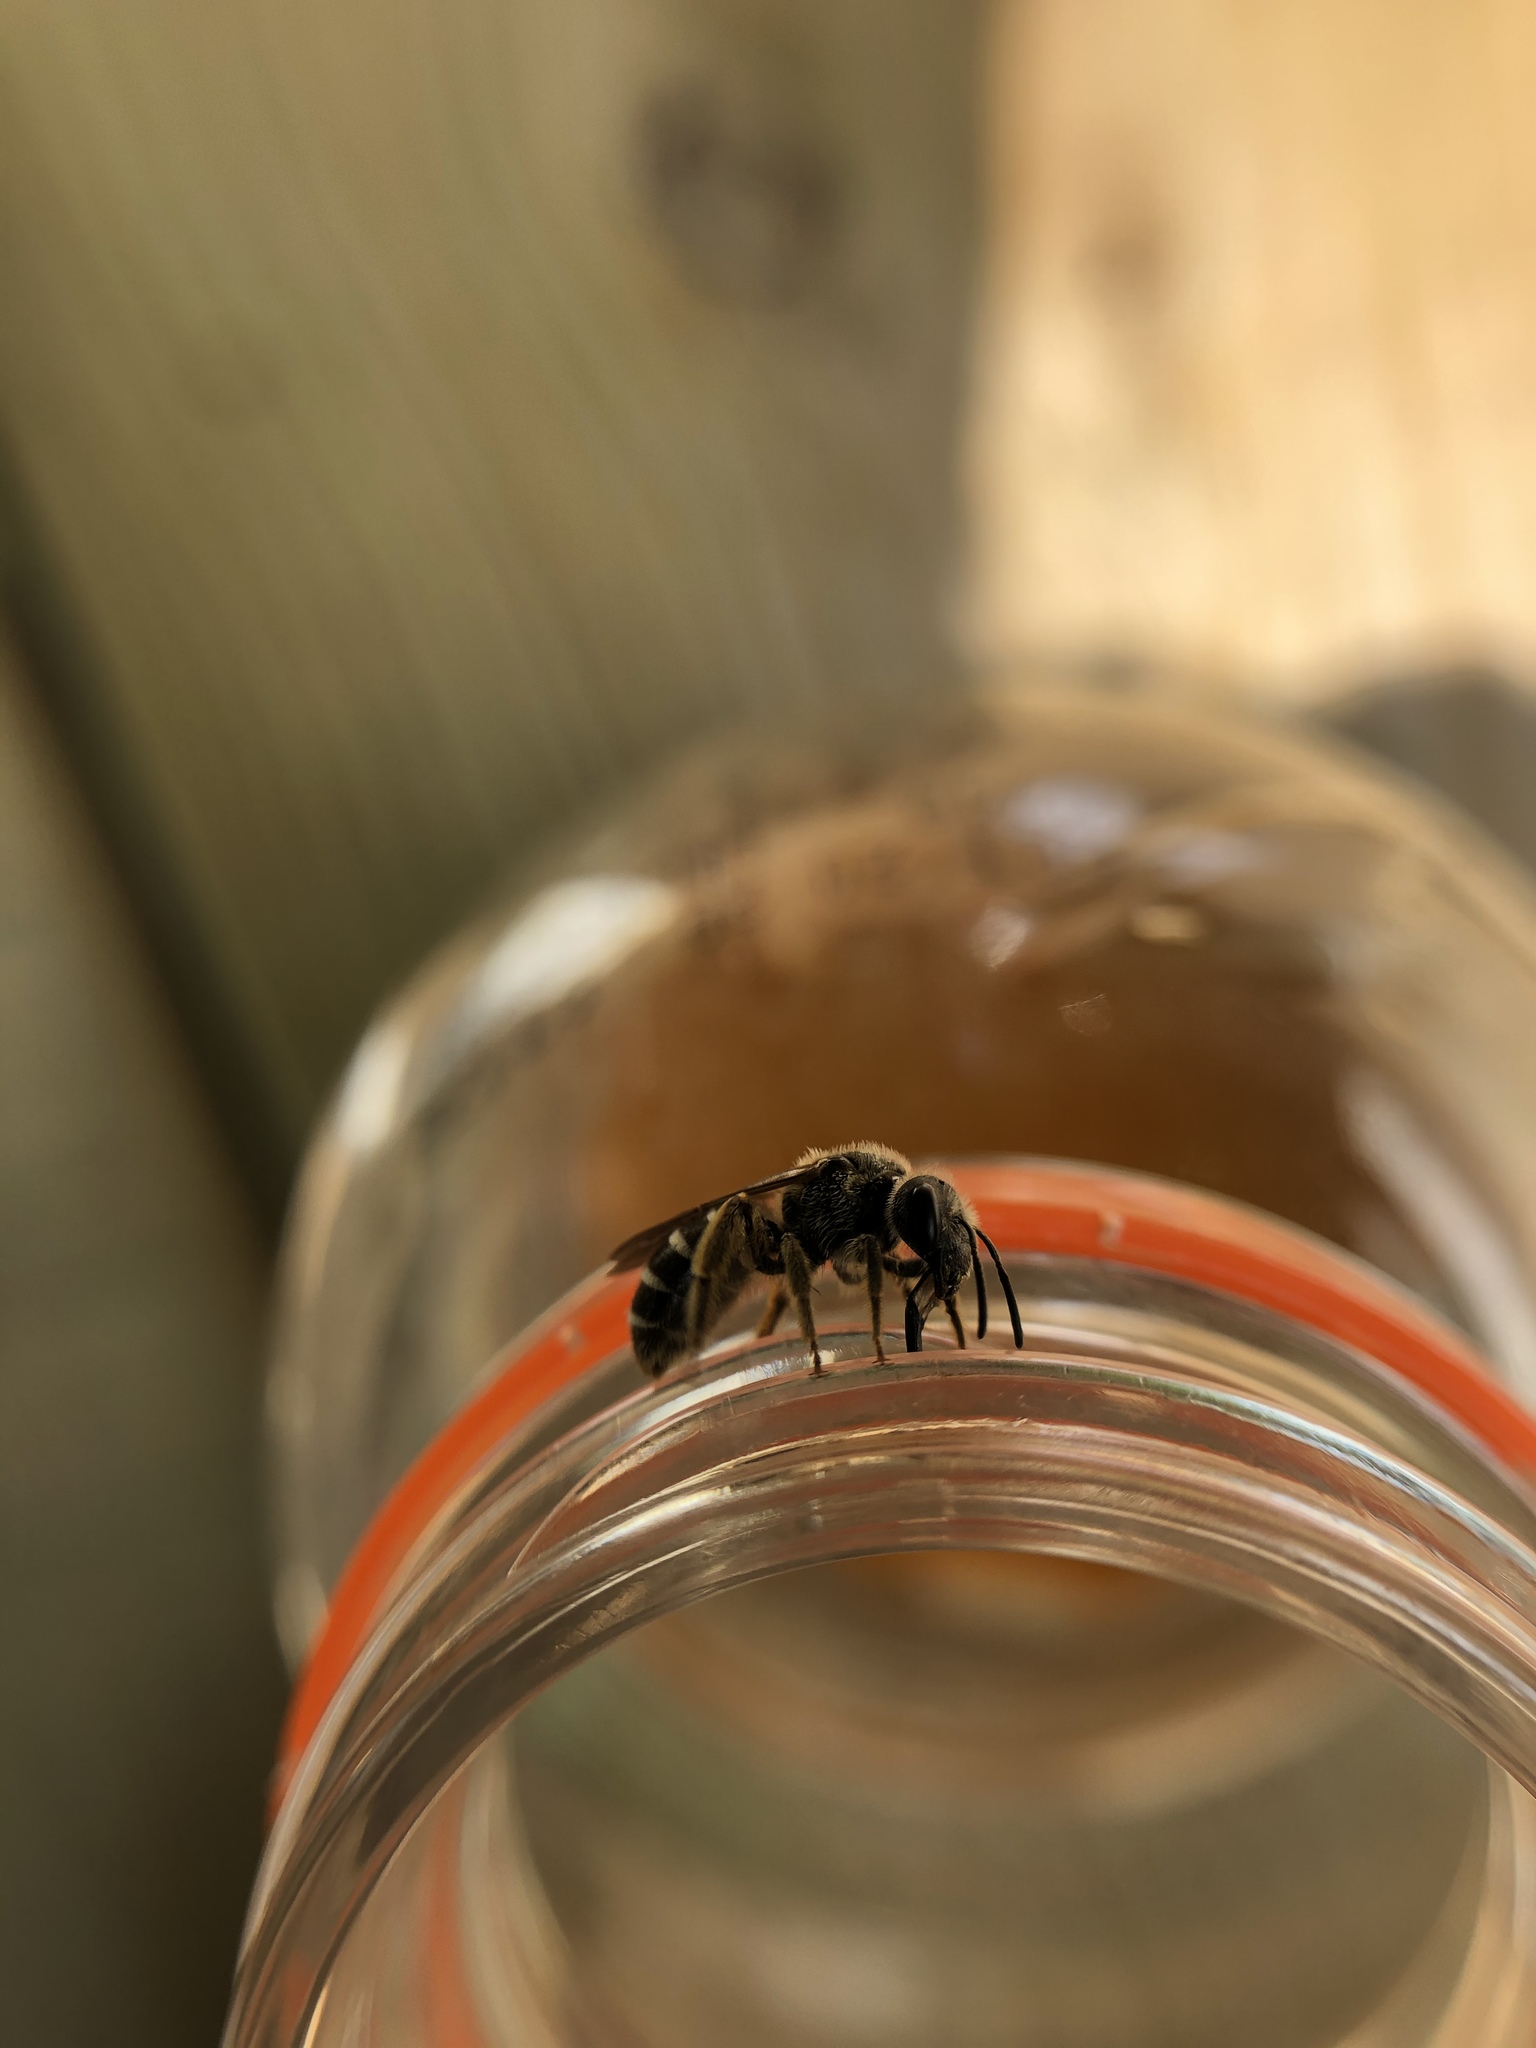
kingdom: Animalia
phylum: Arthropoda
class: Insecta
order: Hymenoptera
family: Halictidae
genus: Halictus
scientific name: Halictus rubicundus
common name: Orange-legged furrow bee
